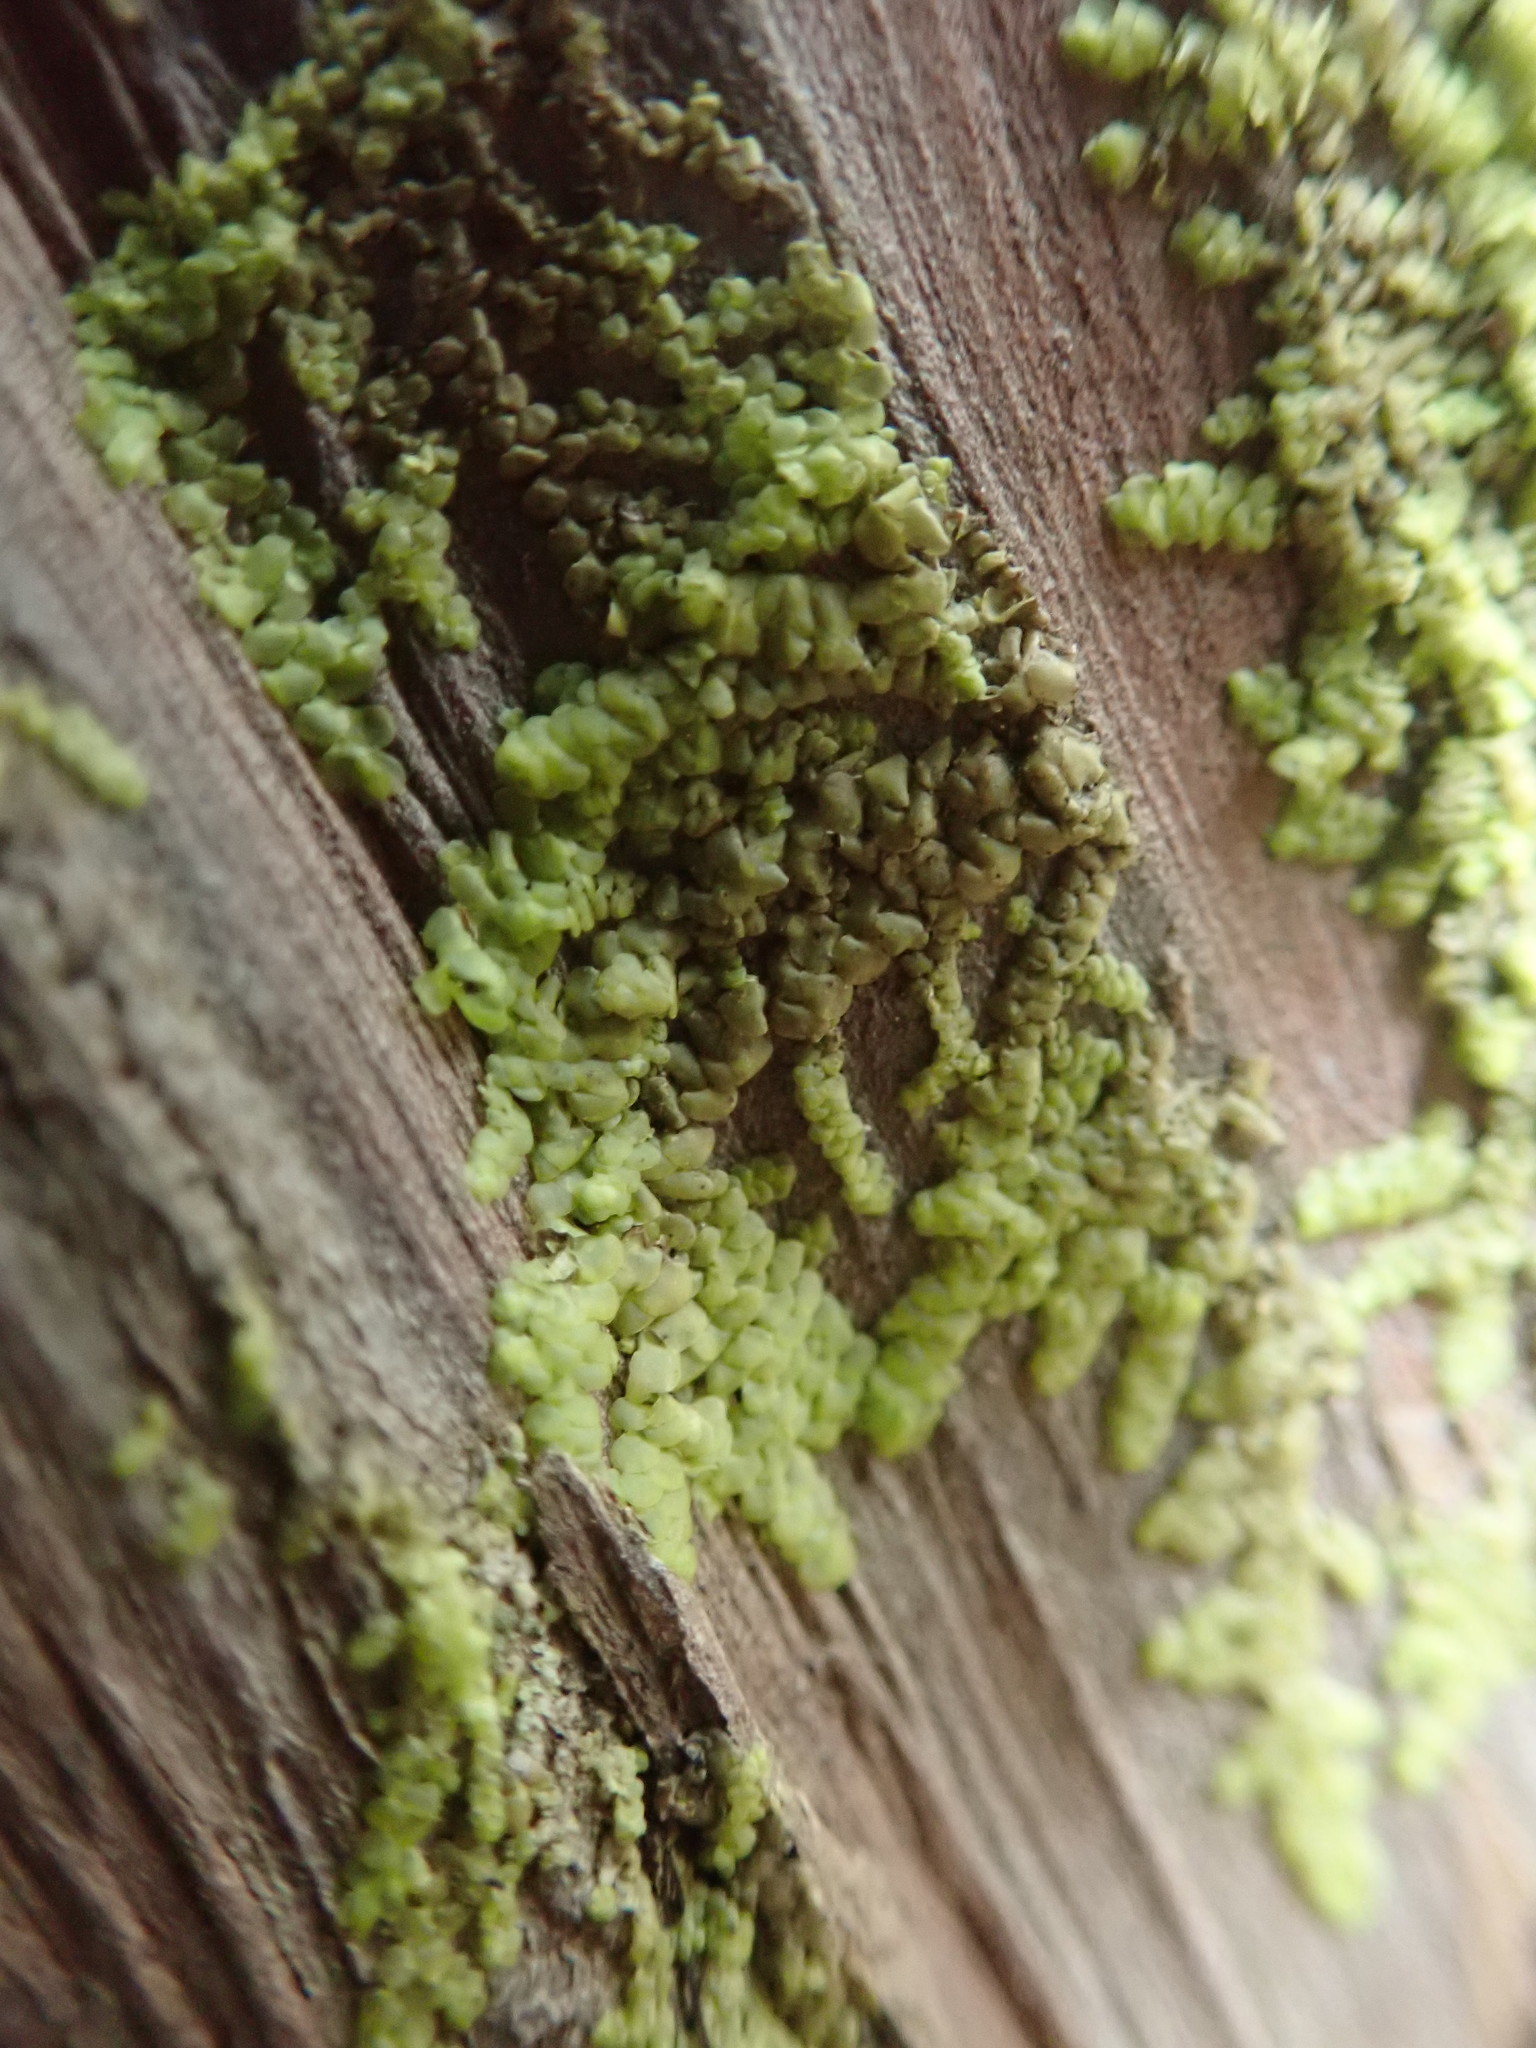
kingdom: Plantae
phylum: Marchantiophyta
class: Jungermanniopsida
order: Porellales
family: Radulaceae
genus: Radula
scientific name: Radula complanata
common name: Flat-leaved scalewort
